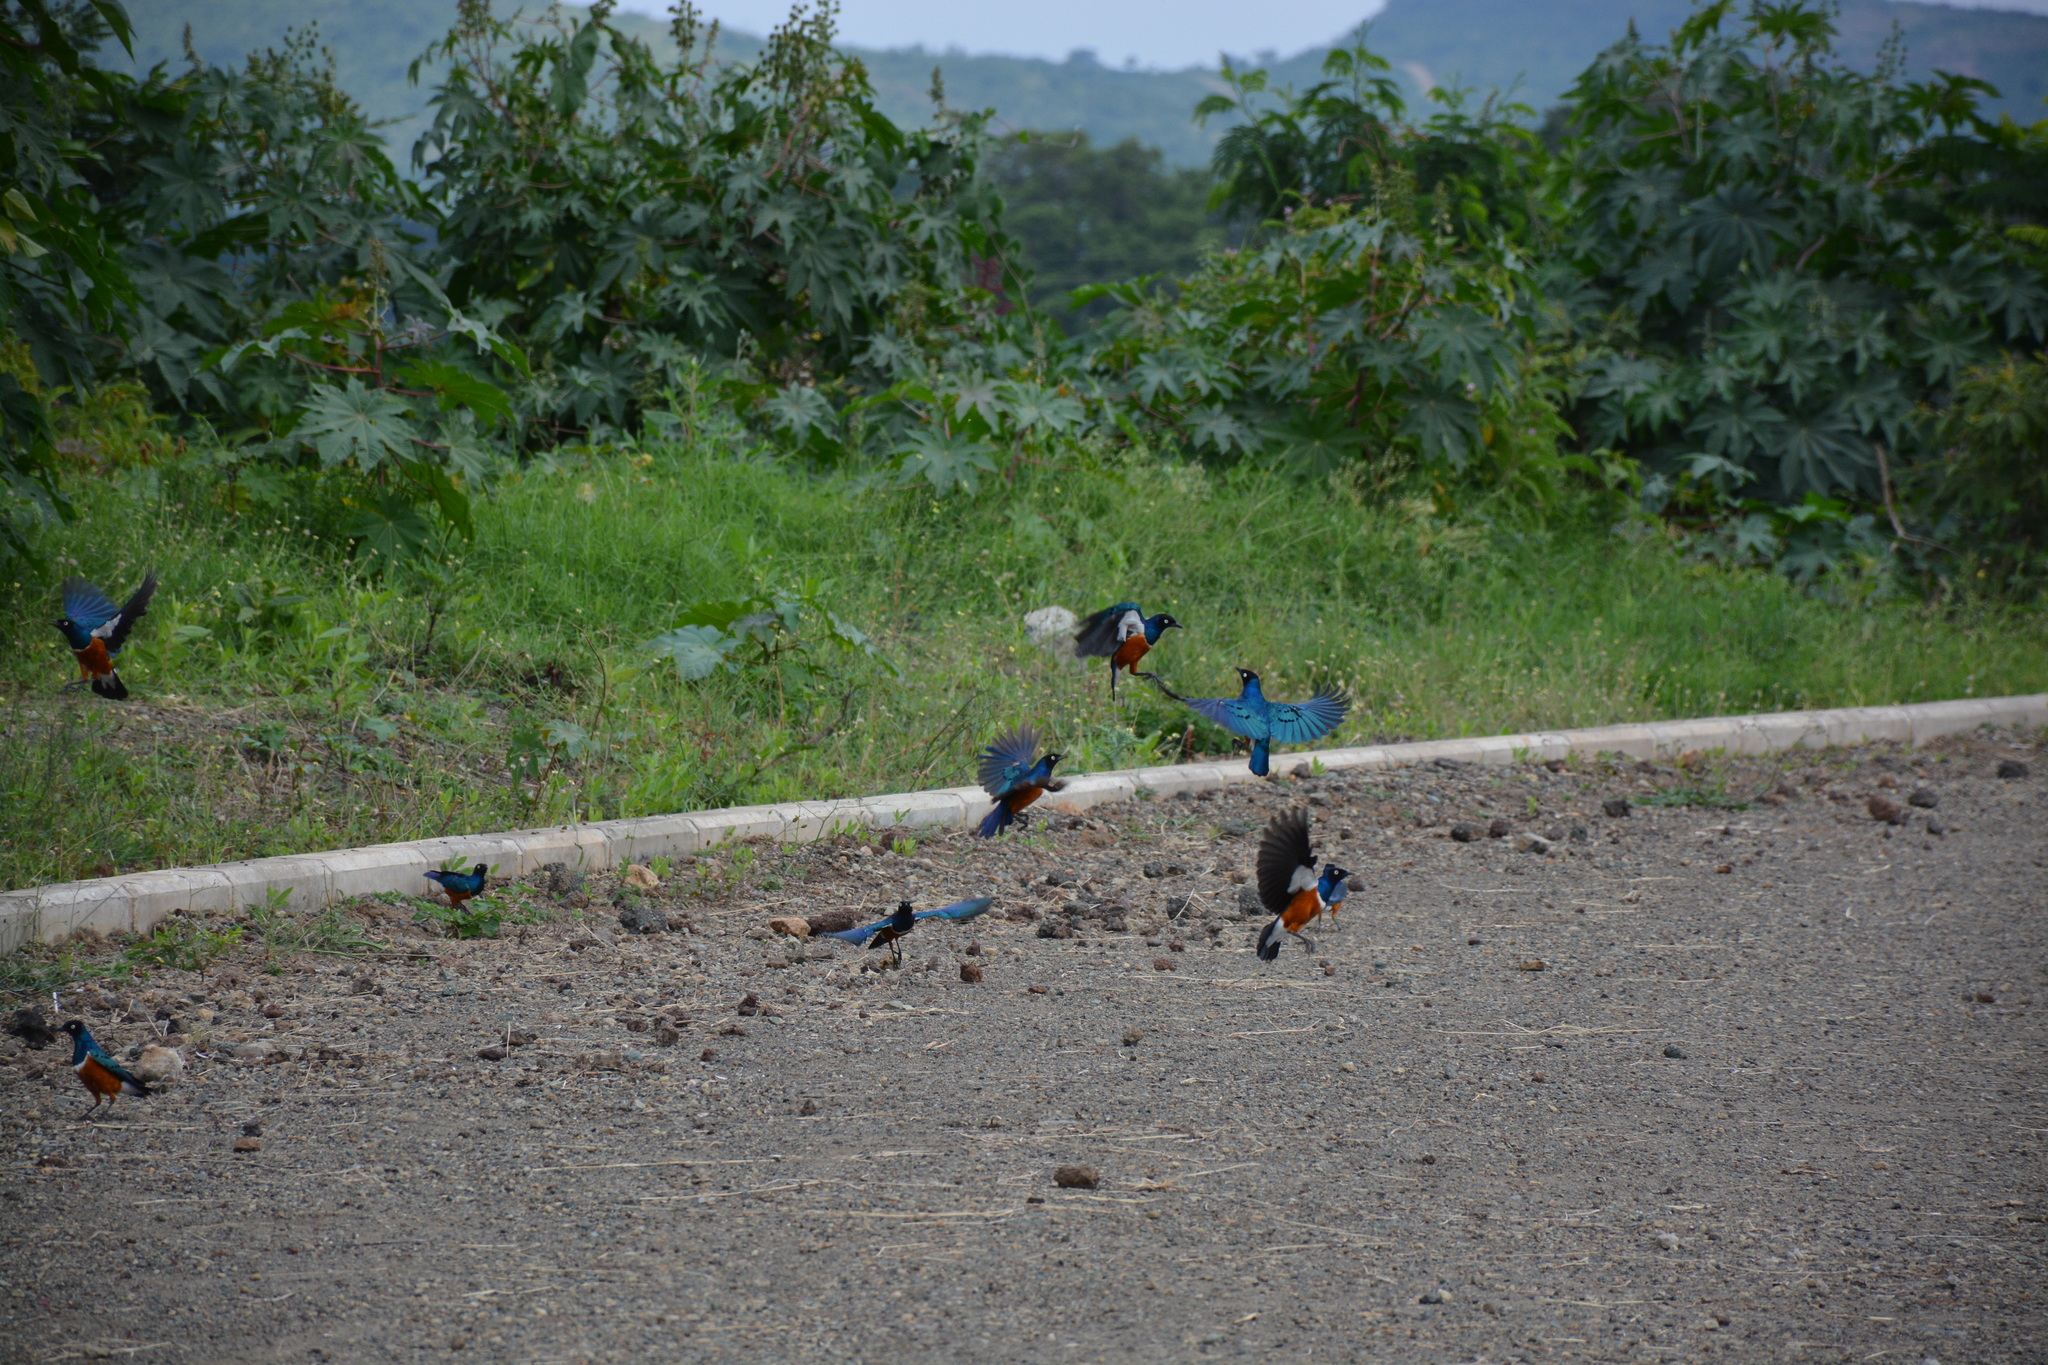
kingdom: Animalia
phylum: Chordata
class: Aves
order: Passeriformes
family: Sturnidae
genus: Lamprotornis
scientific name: Lamprotornis superbus
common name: Superb starling
